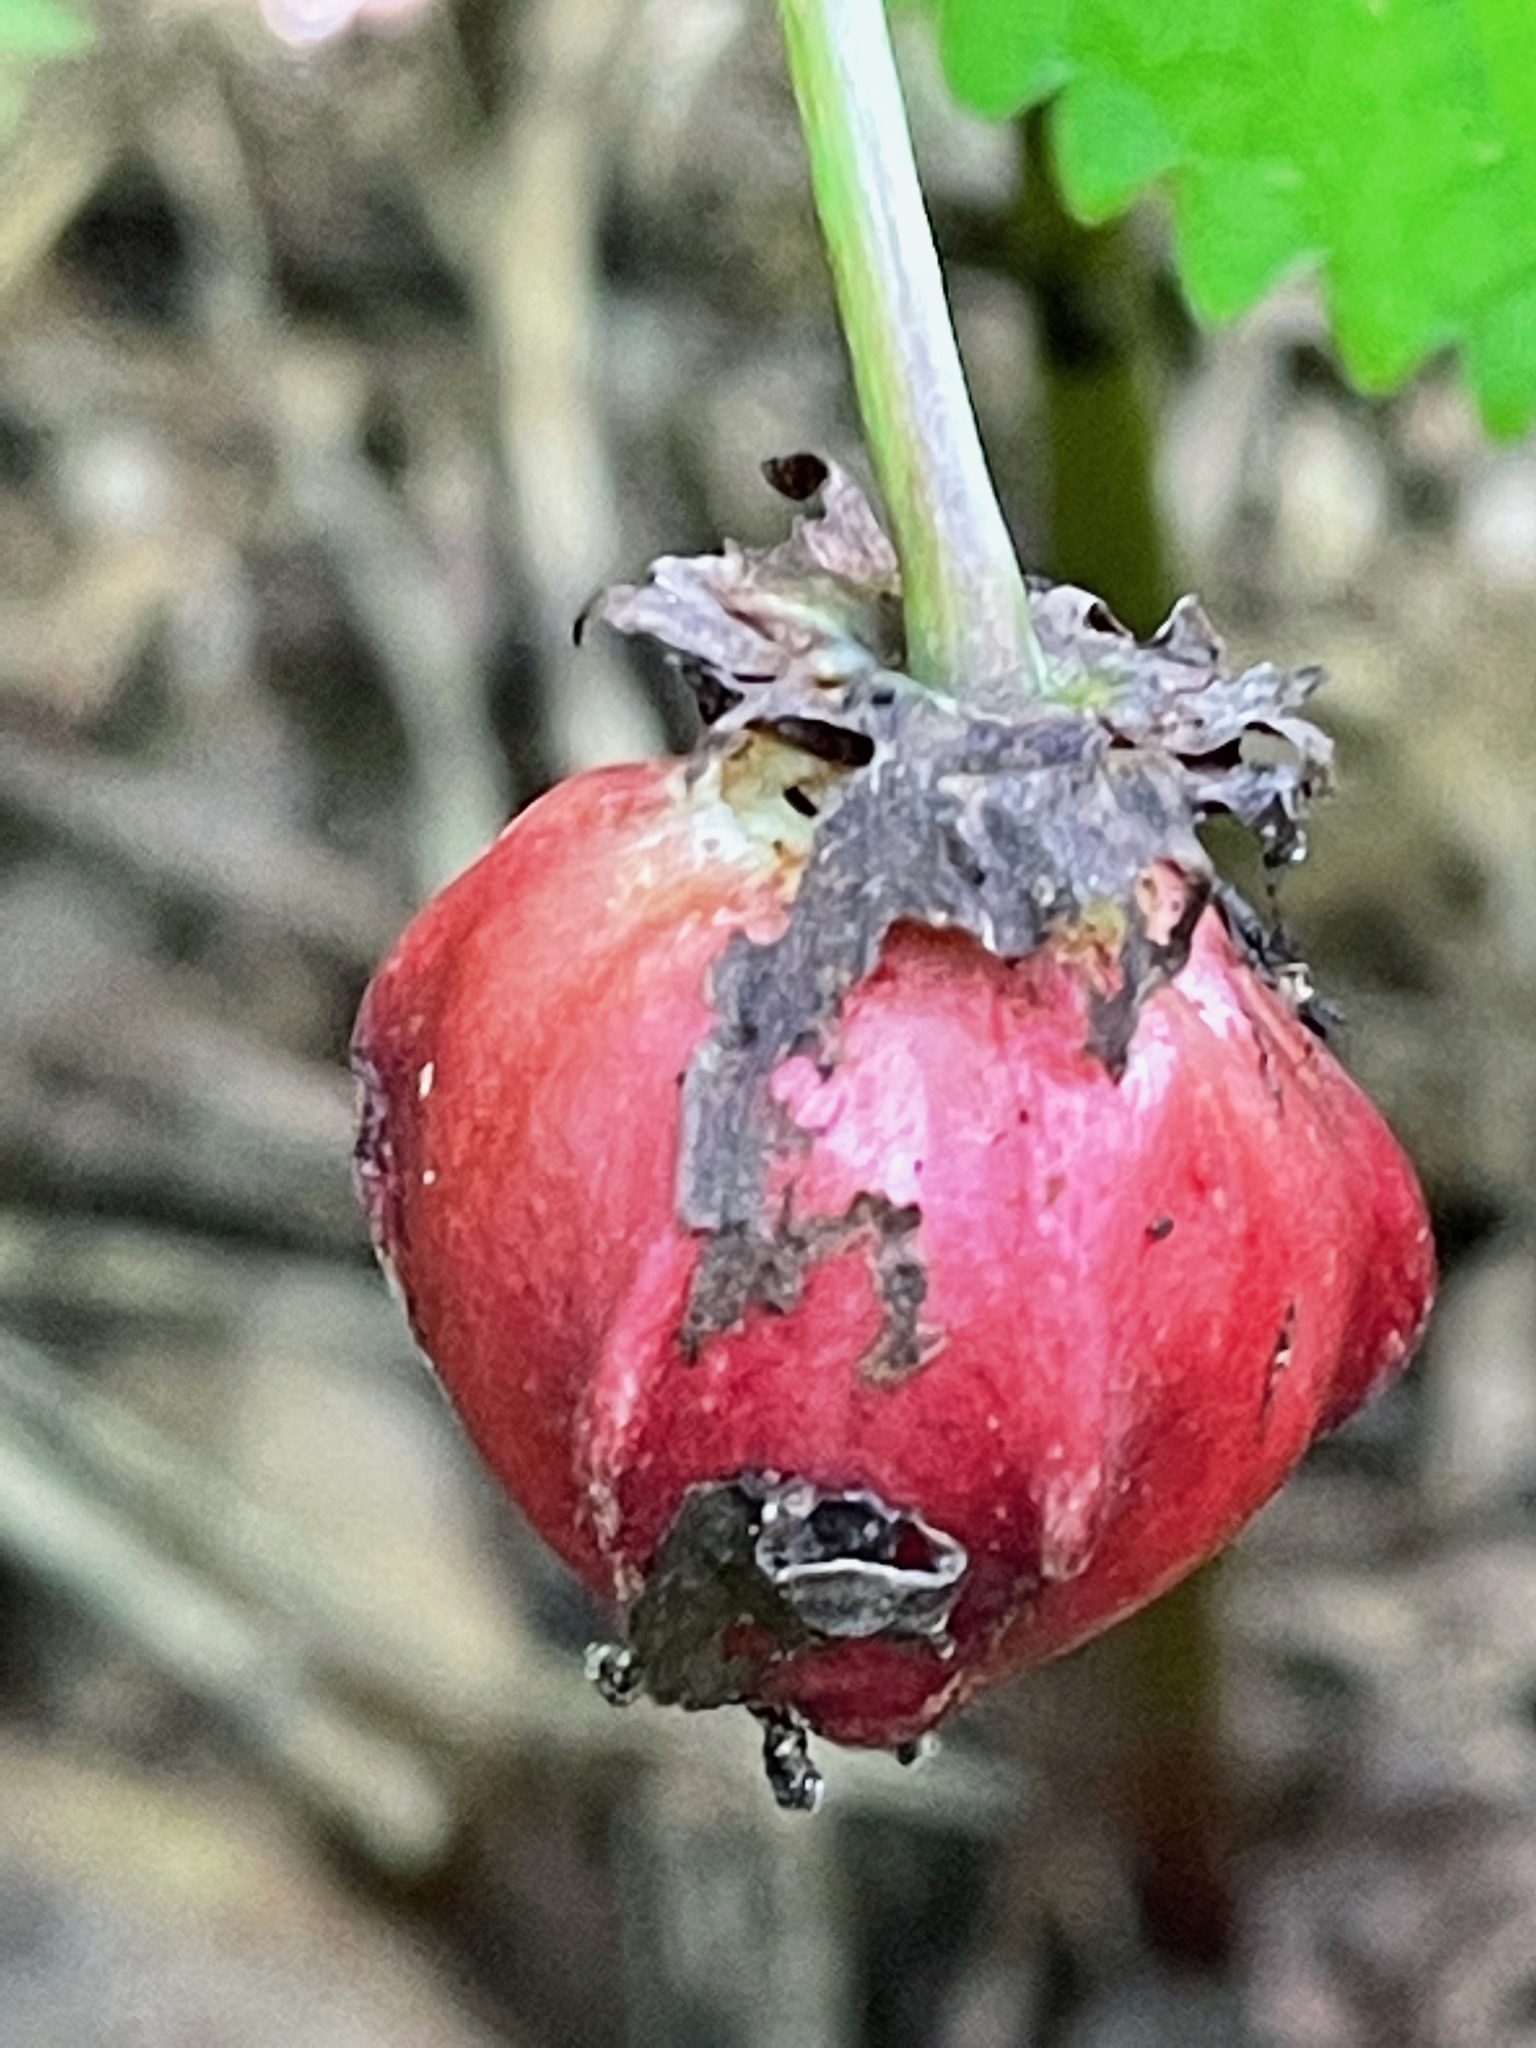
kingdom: Plantae
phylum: Tracheophyta
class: Liliopsida
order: Liliales
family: Melanthiaceae
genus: Trillium
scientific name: Trillium erectum
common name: Purple trillium
